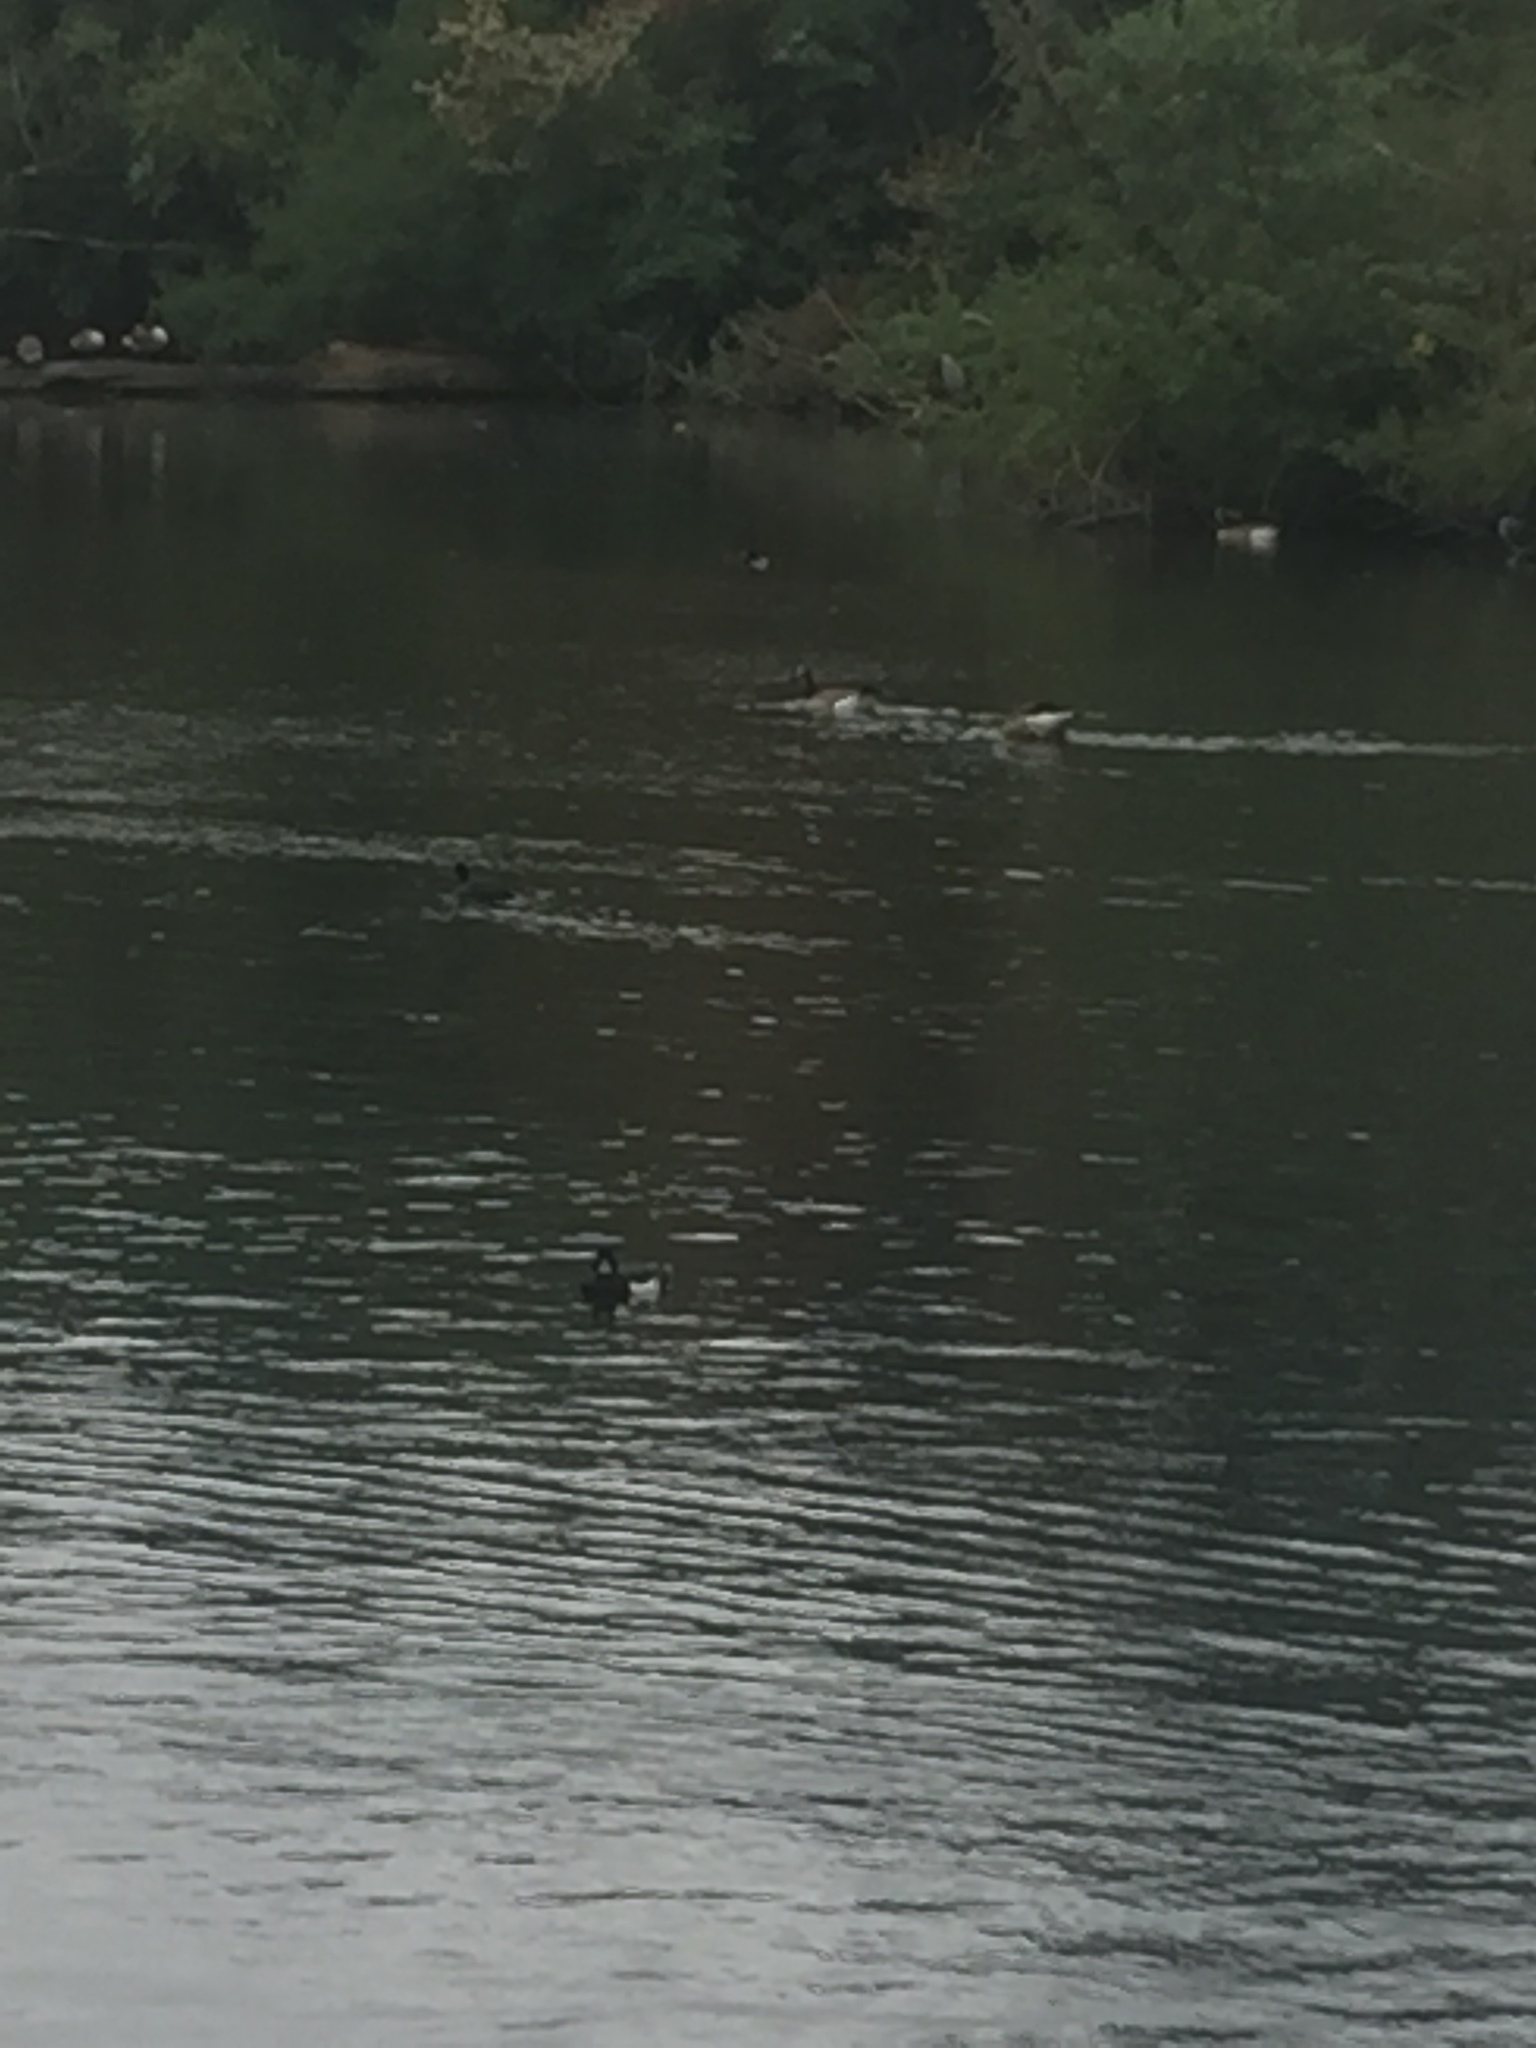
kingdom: Animalia
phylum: Chordata
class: Aves
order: Anseriformes
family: Anatidae
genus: Aythya
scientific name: Aythya fuligula
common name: Tufted duck
